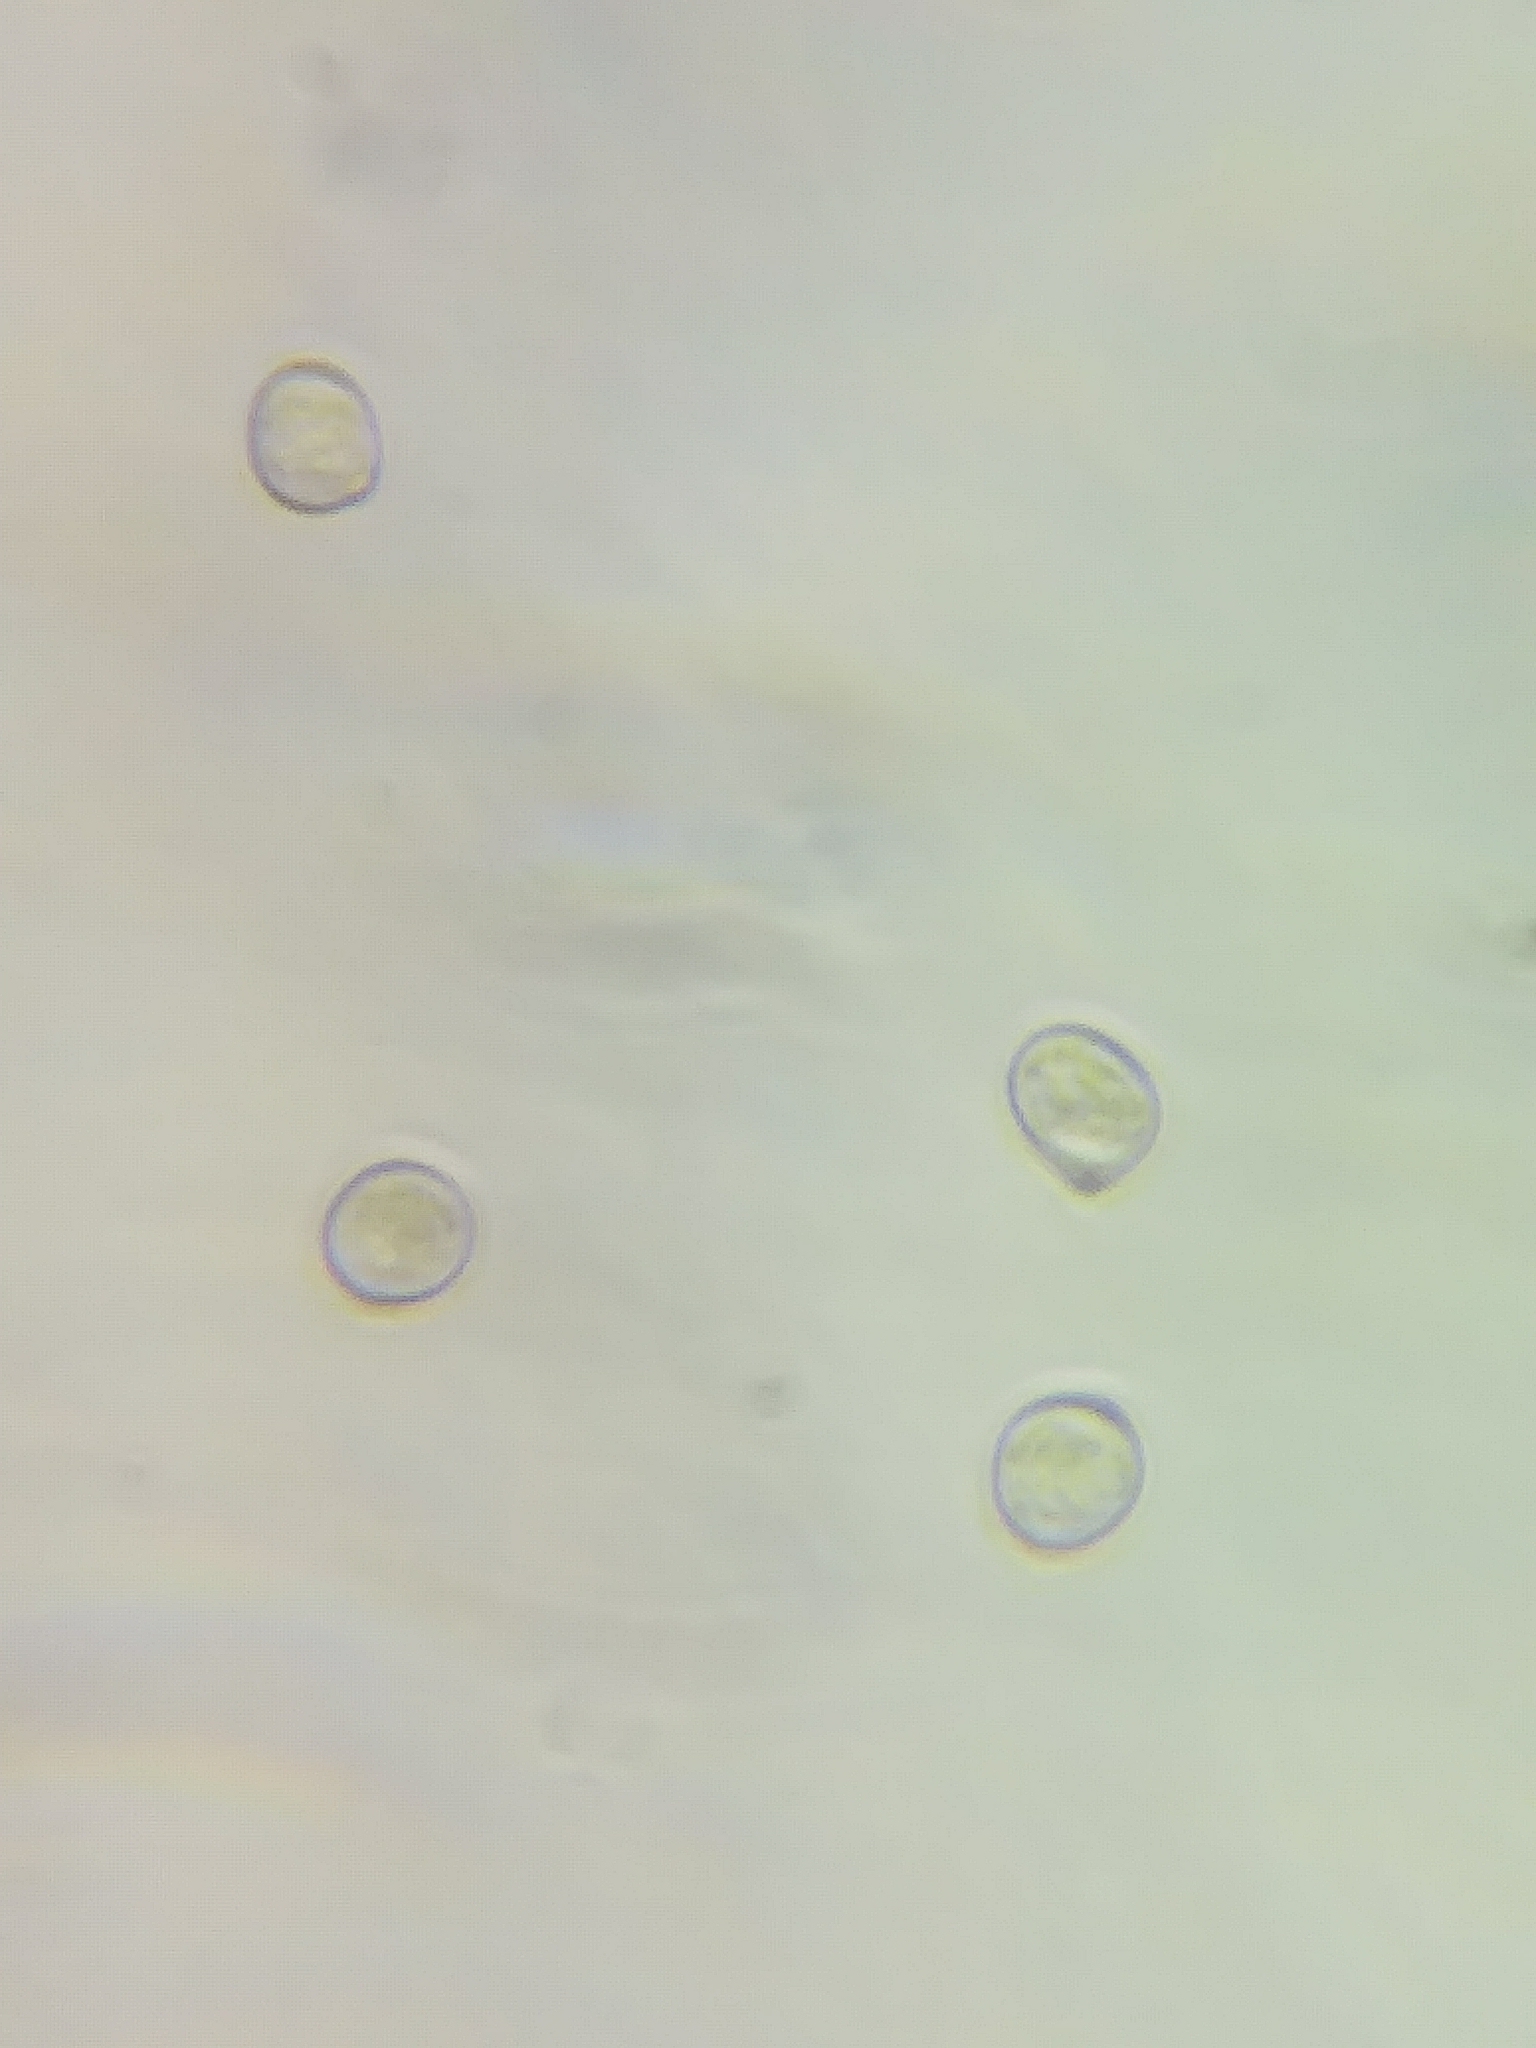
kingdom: Fungi
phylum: Basidiomycota
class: Agaricomycetes
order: Agaricales
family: Pluteaceae
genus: Pluteus
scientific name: Pluteus podospileus
